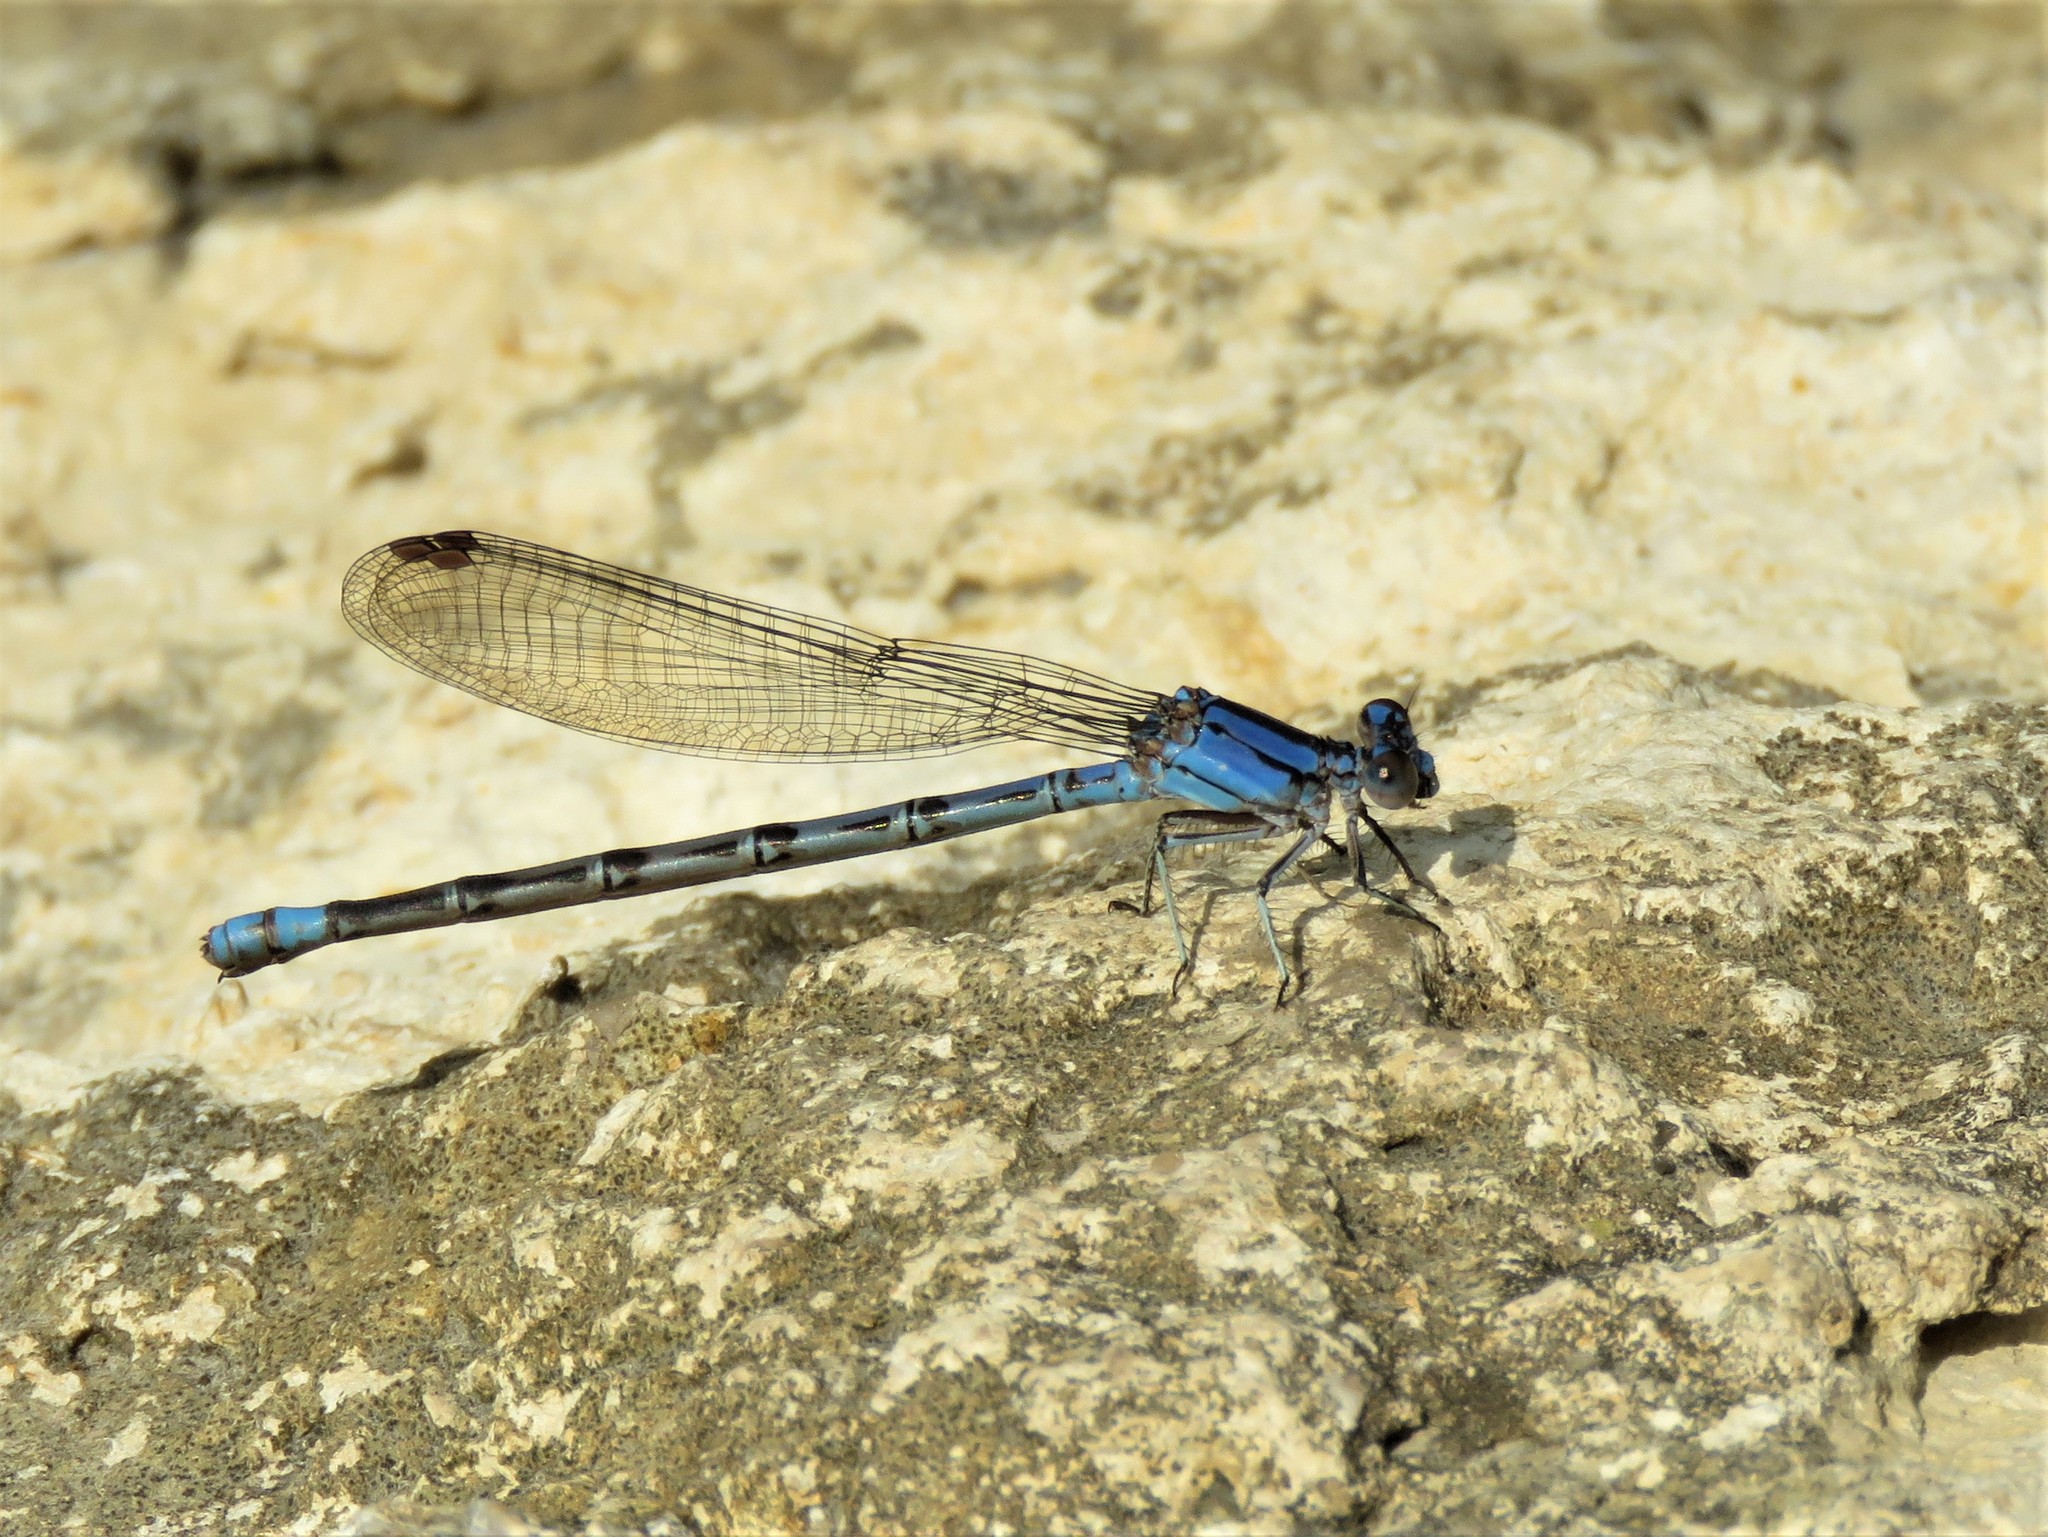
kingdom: Animalia
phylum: Arthropoda
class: Insecta
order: Odonata
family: Coenagrionidae
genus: Argia
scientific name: Argia funebris
